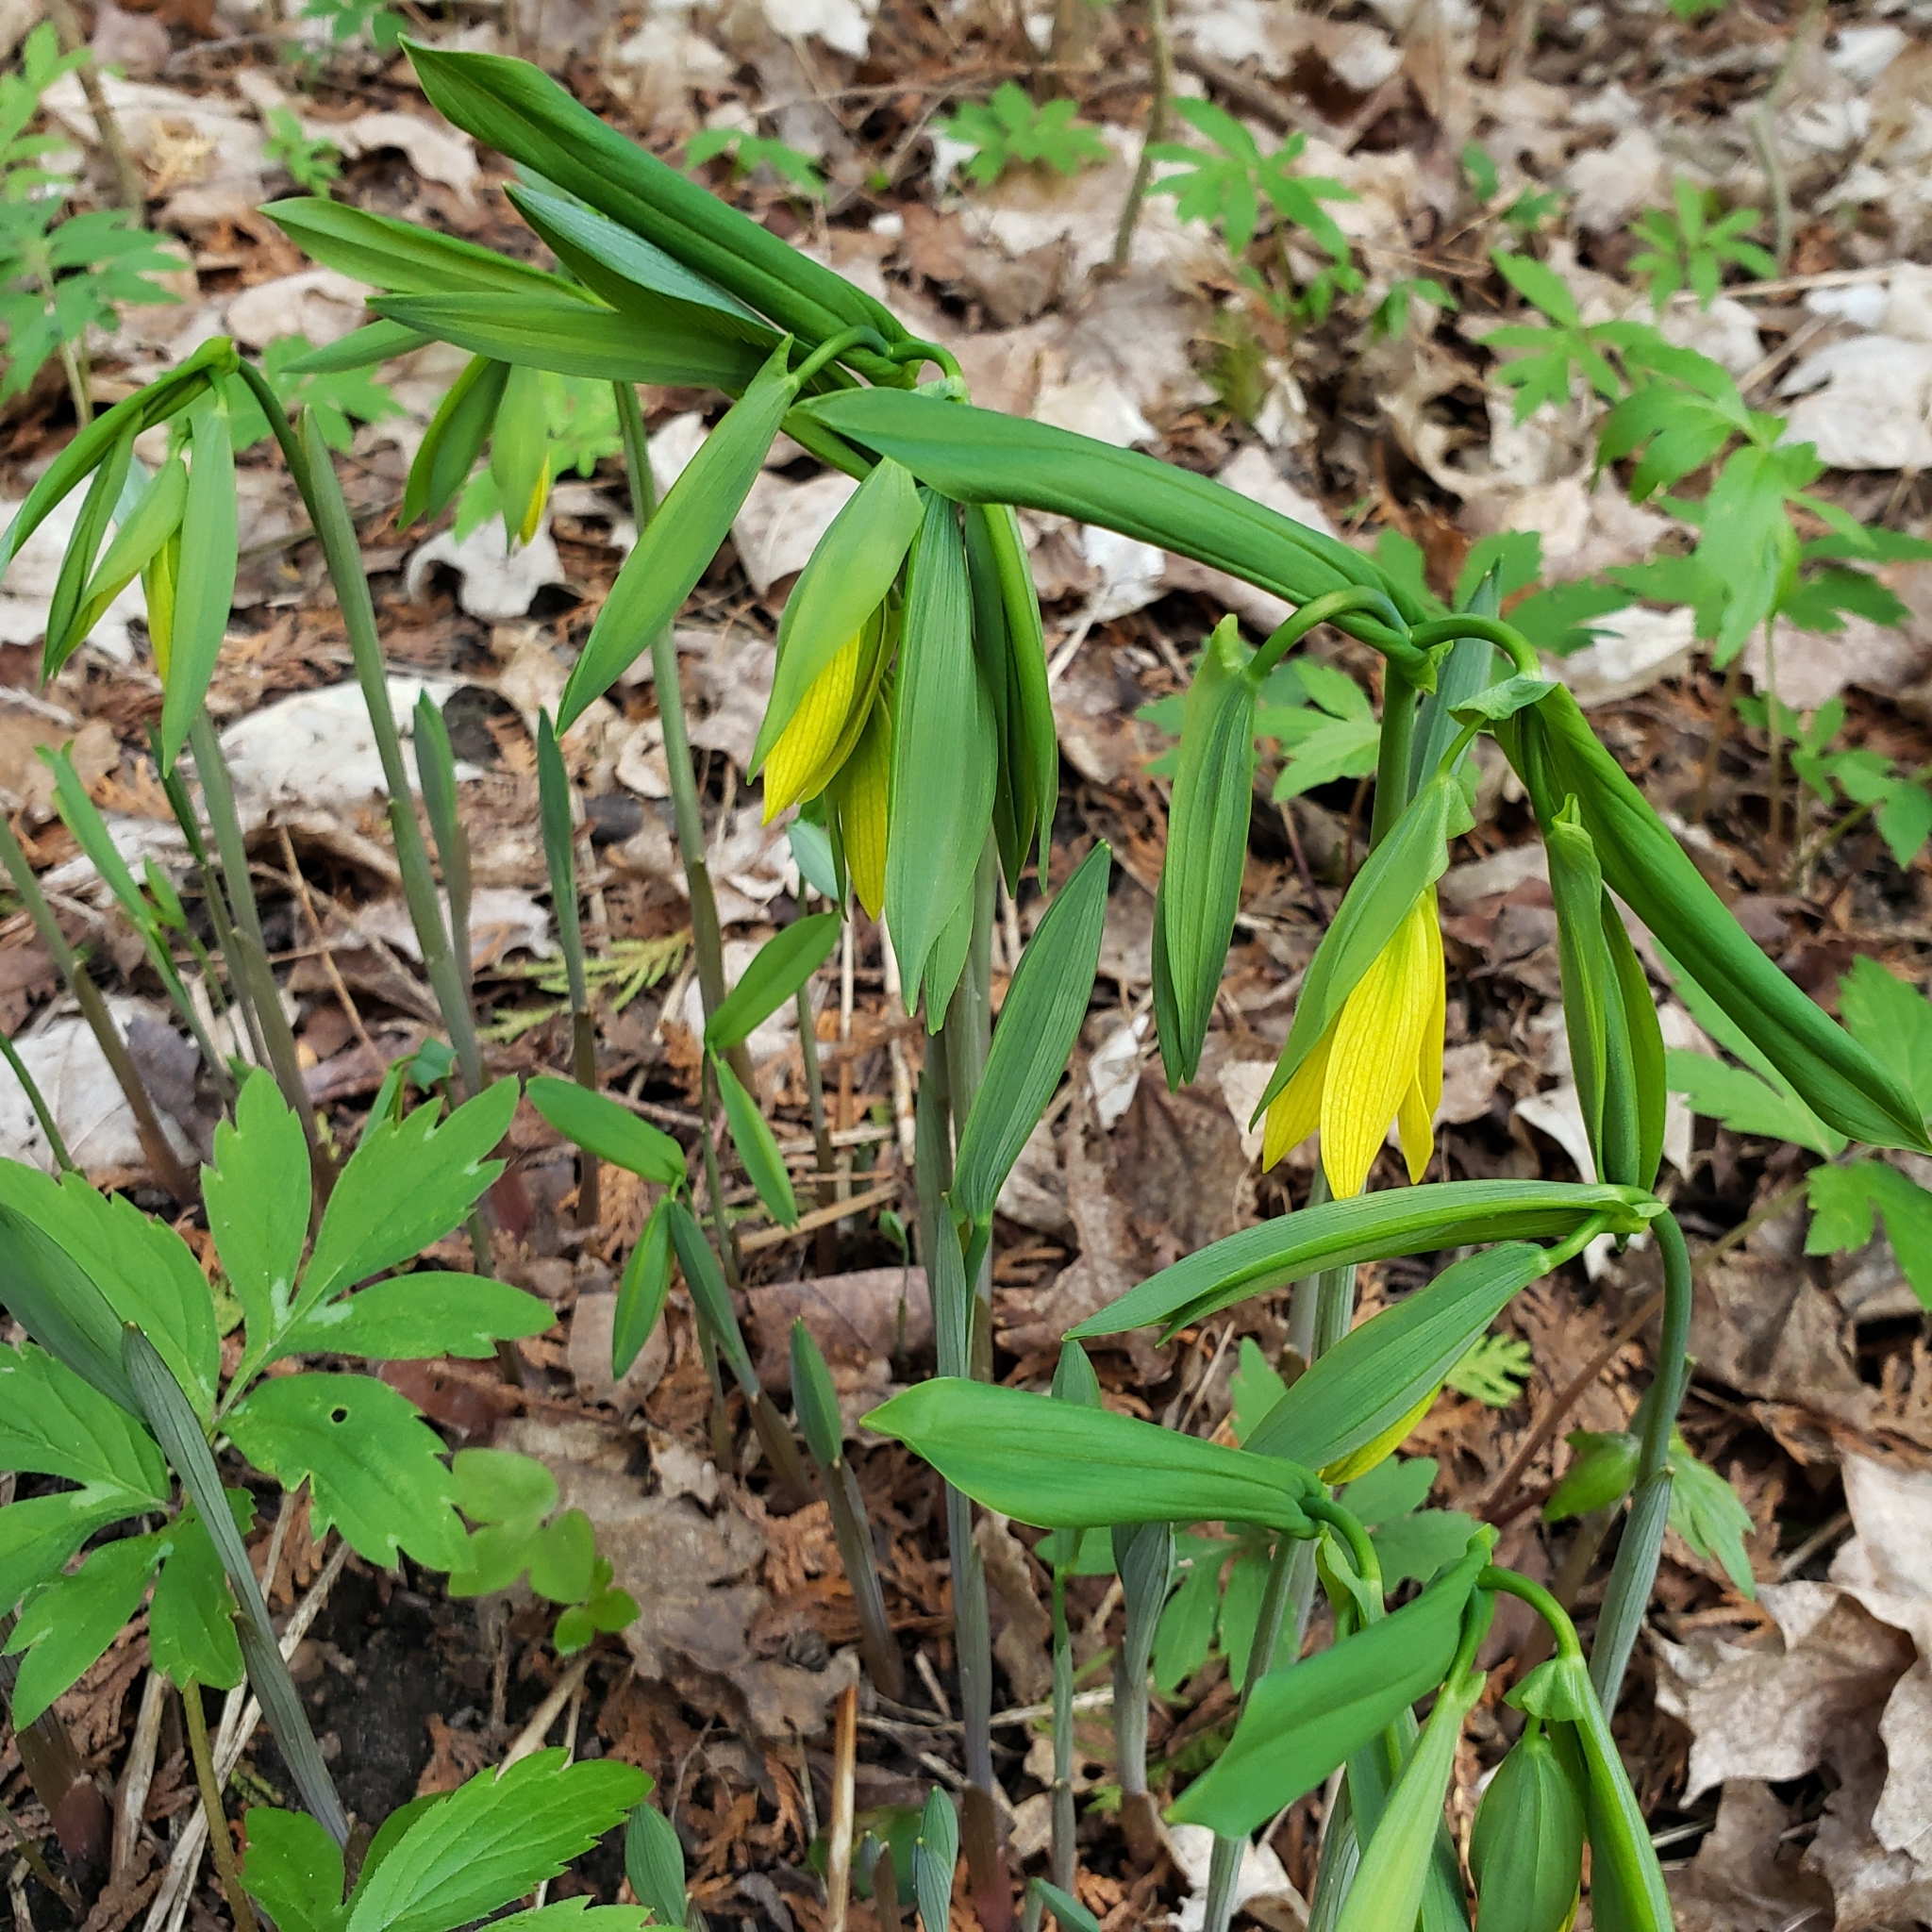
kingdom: Plantae
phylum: Tracheophyta
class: Liliopsida
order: Liliales
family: Colchicaceae
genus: Uvularia
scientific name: Uvularia grandiflora
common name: Bellwort
